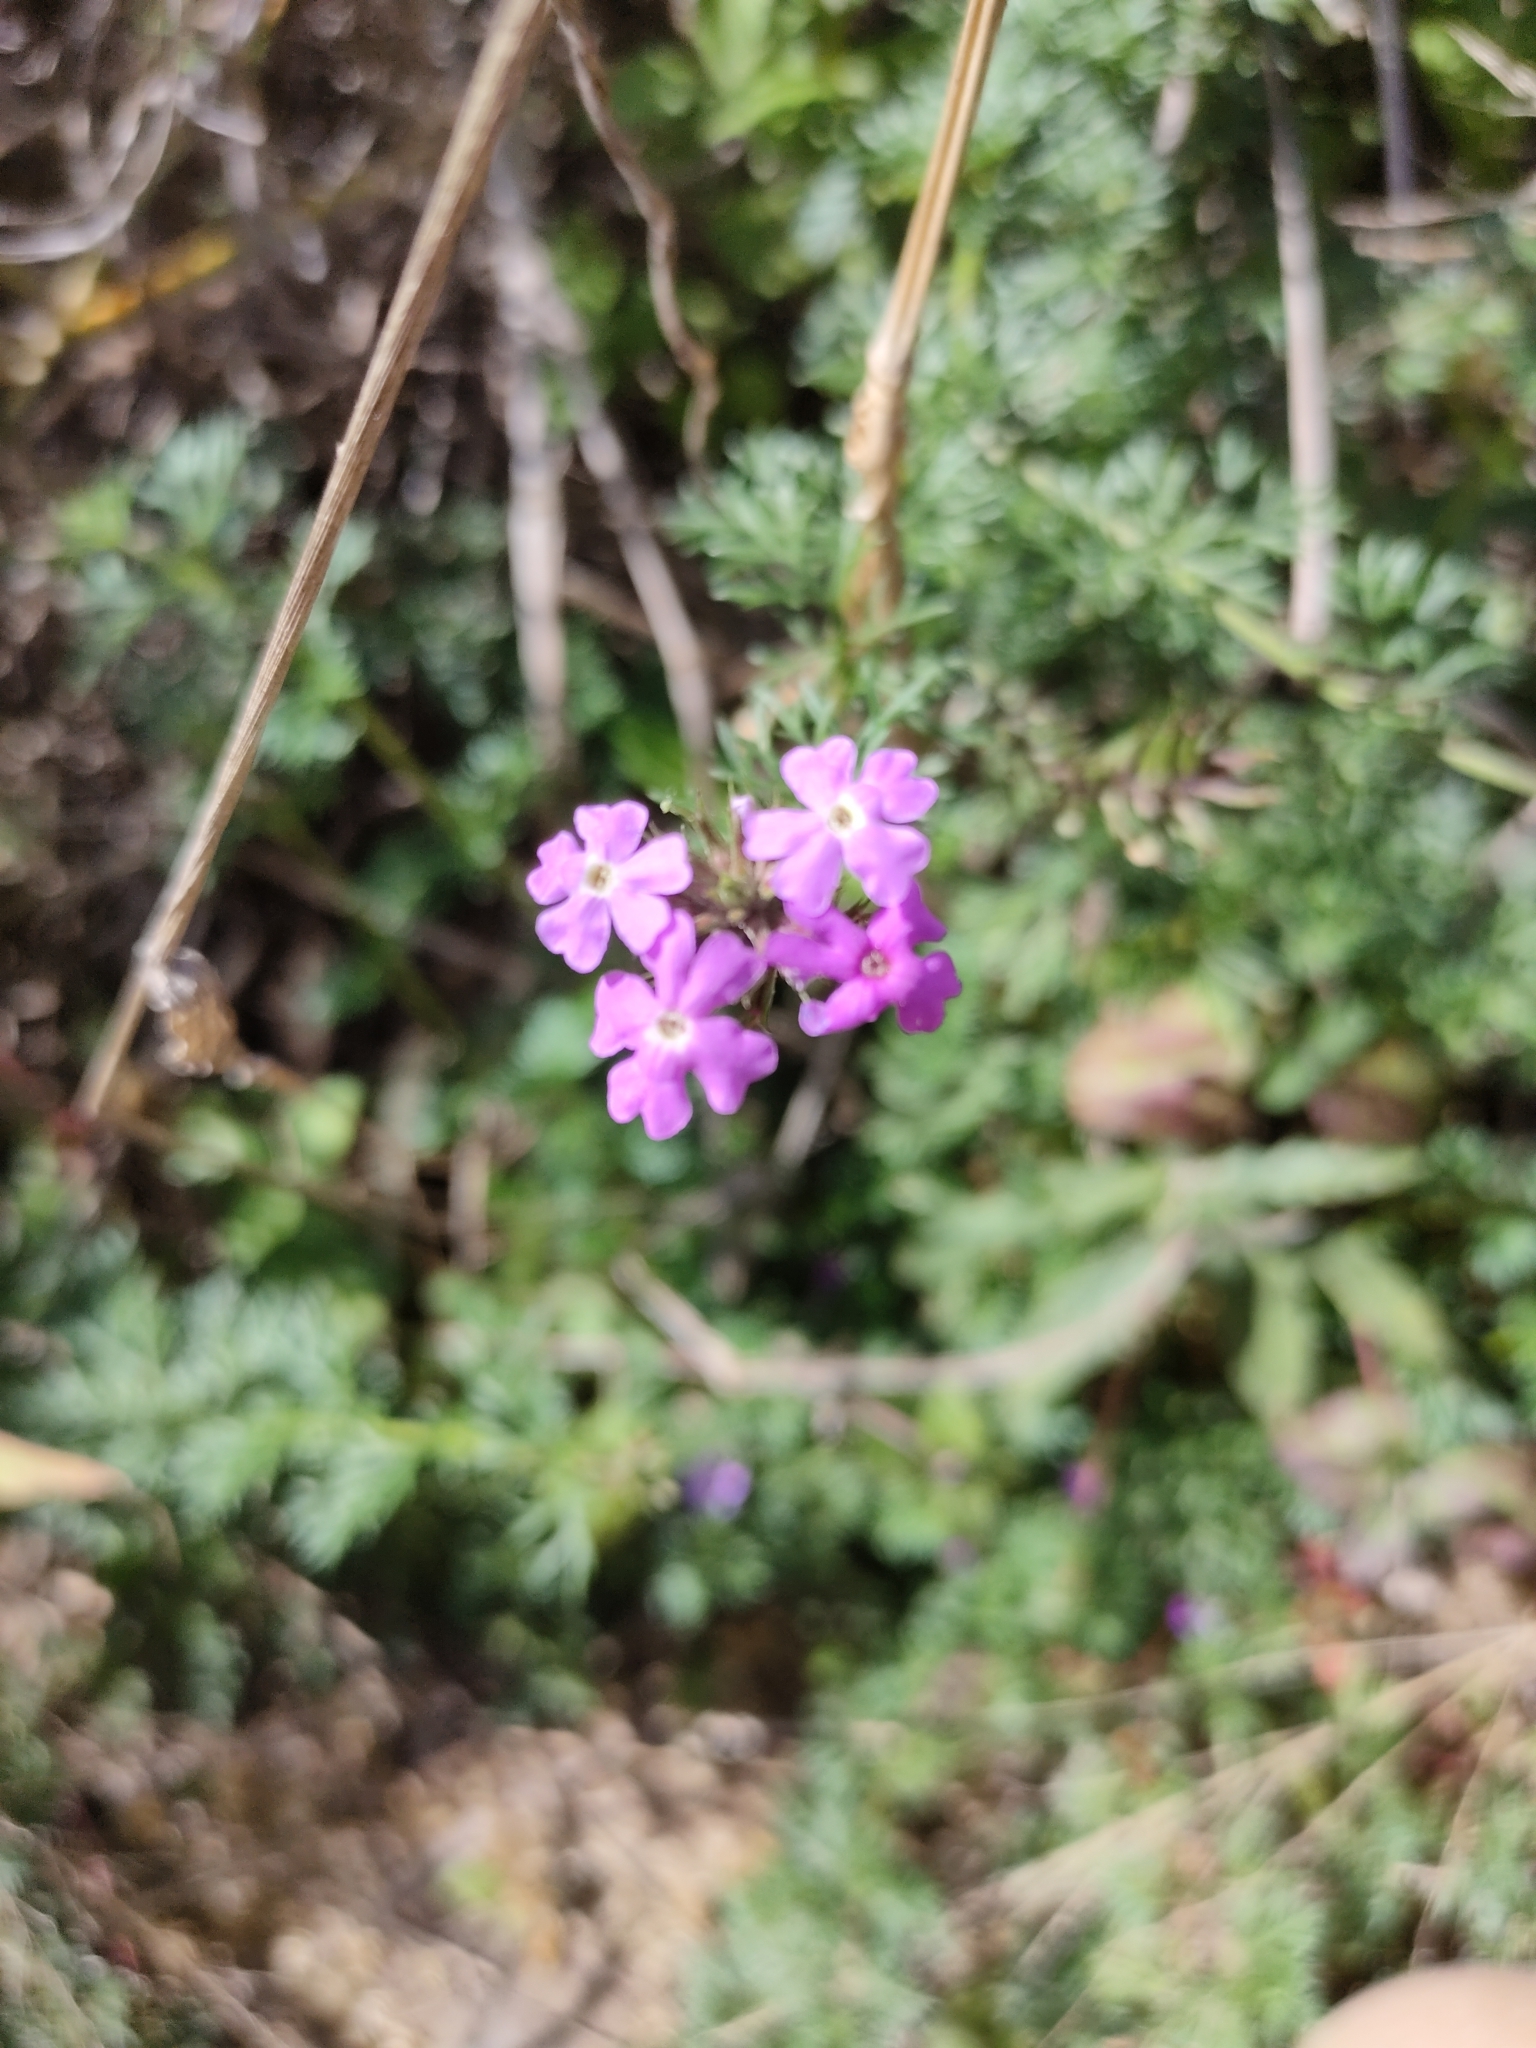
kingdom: Plantae
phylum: Tracheophyta
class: Magnoliopsida
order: Lamiales
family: Verbenaceae
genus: Verbena
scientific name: Verbena aristigera
